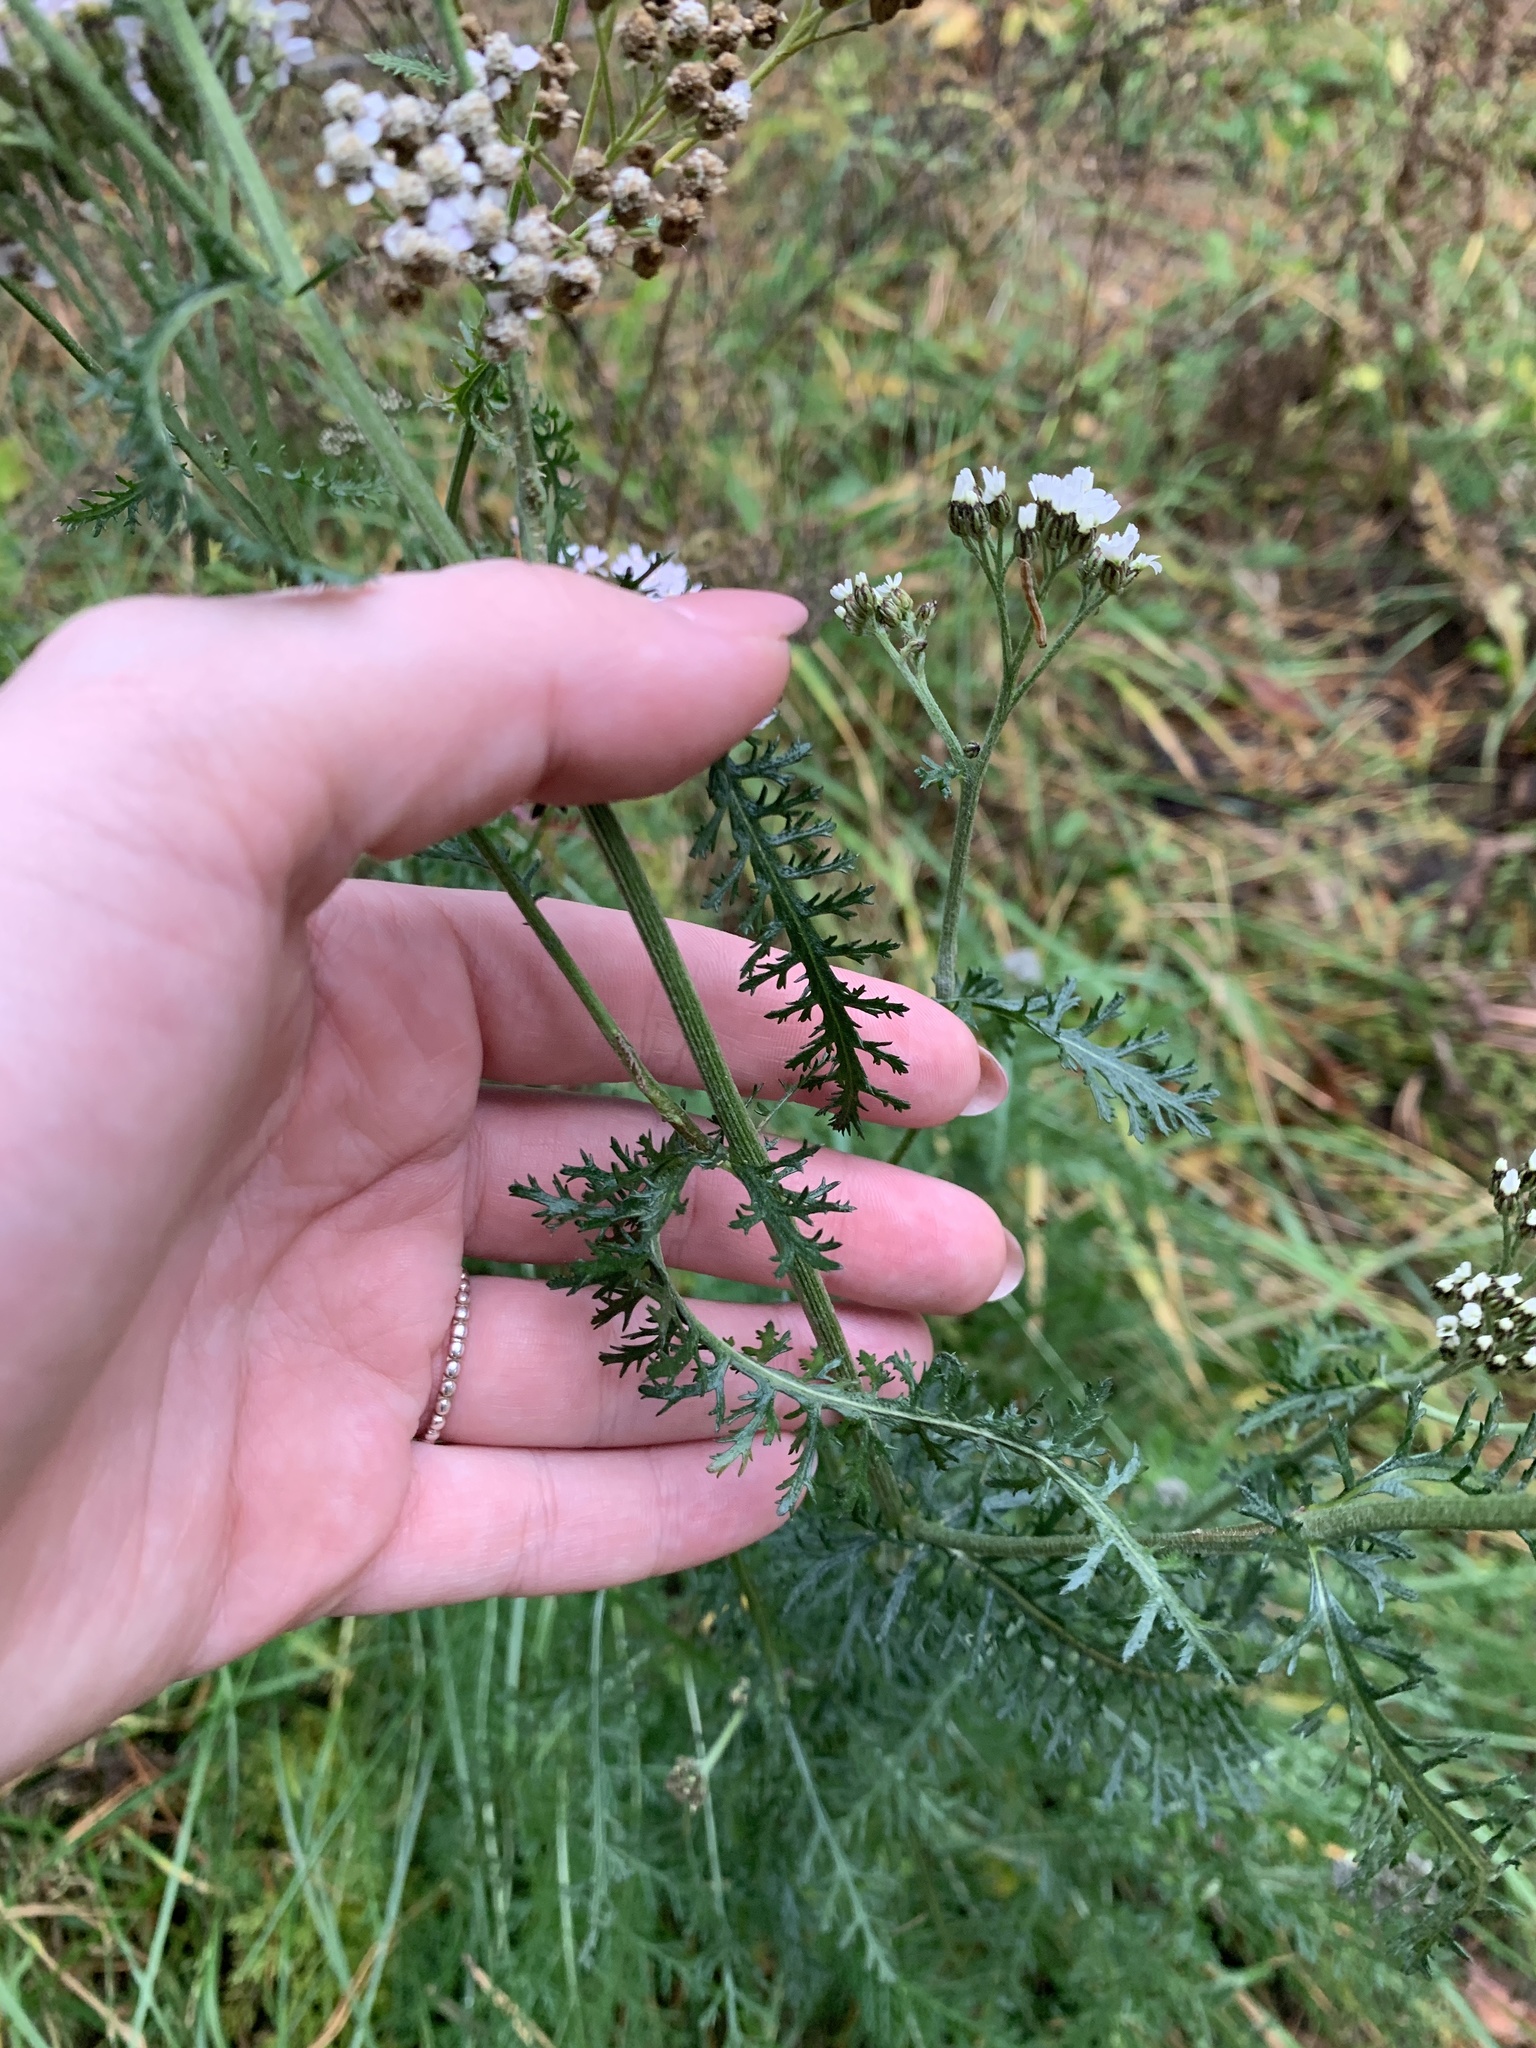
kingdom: Plantae
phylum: Tracheophyta
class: Magnoliopsida
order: Asterales
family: Asteraceae
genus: Achillea
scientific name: Achillea millefolium
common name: Yarrow
